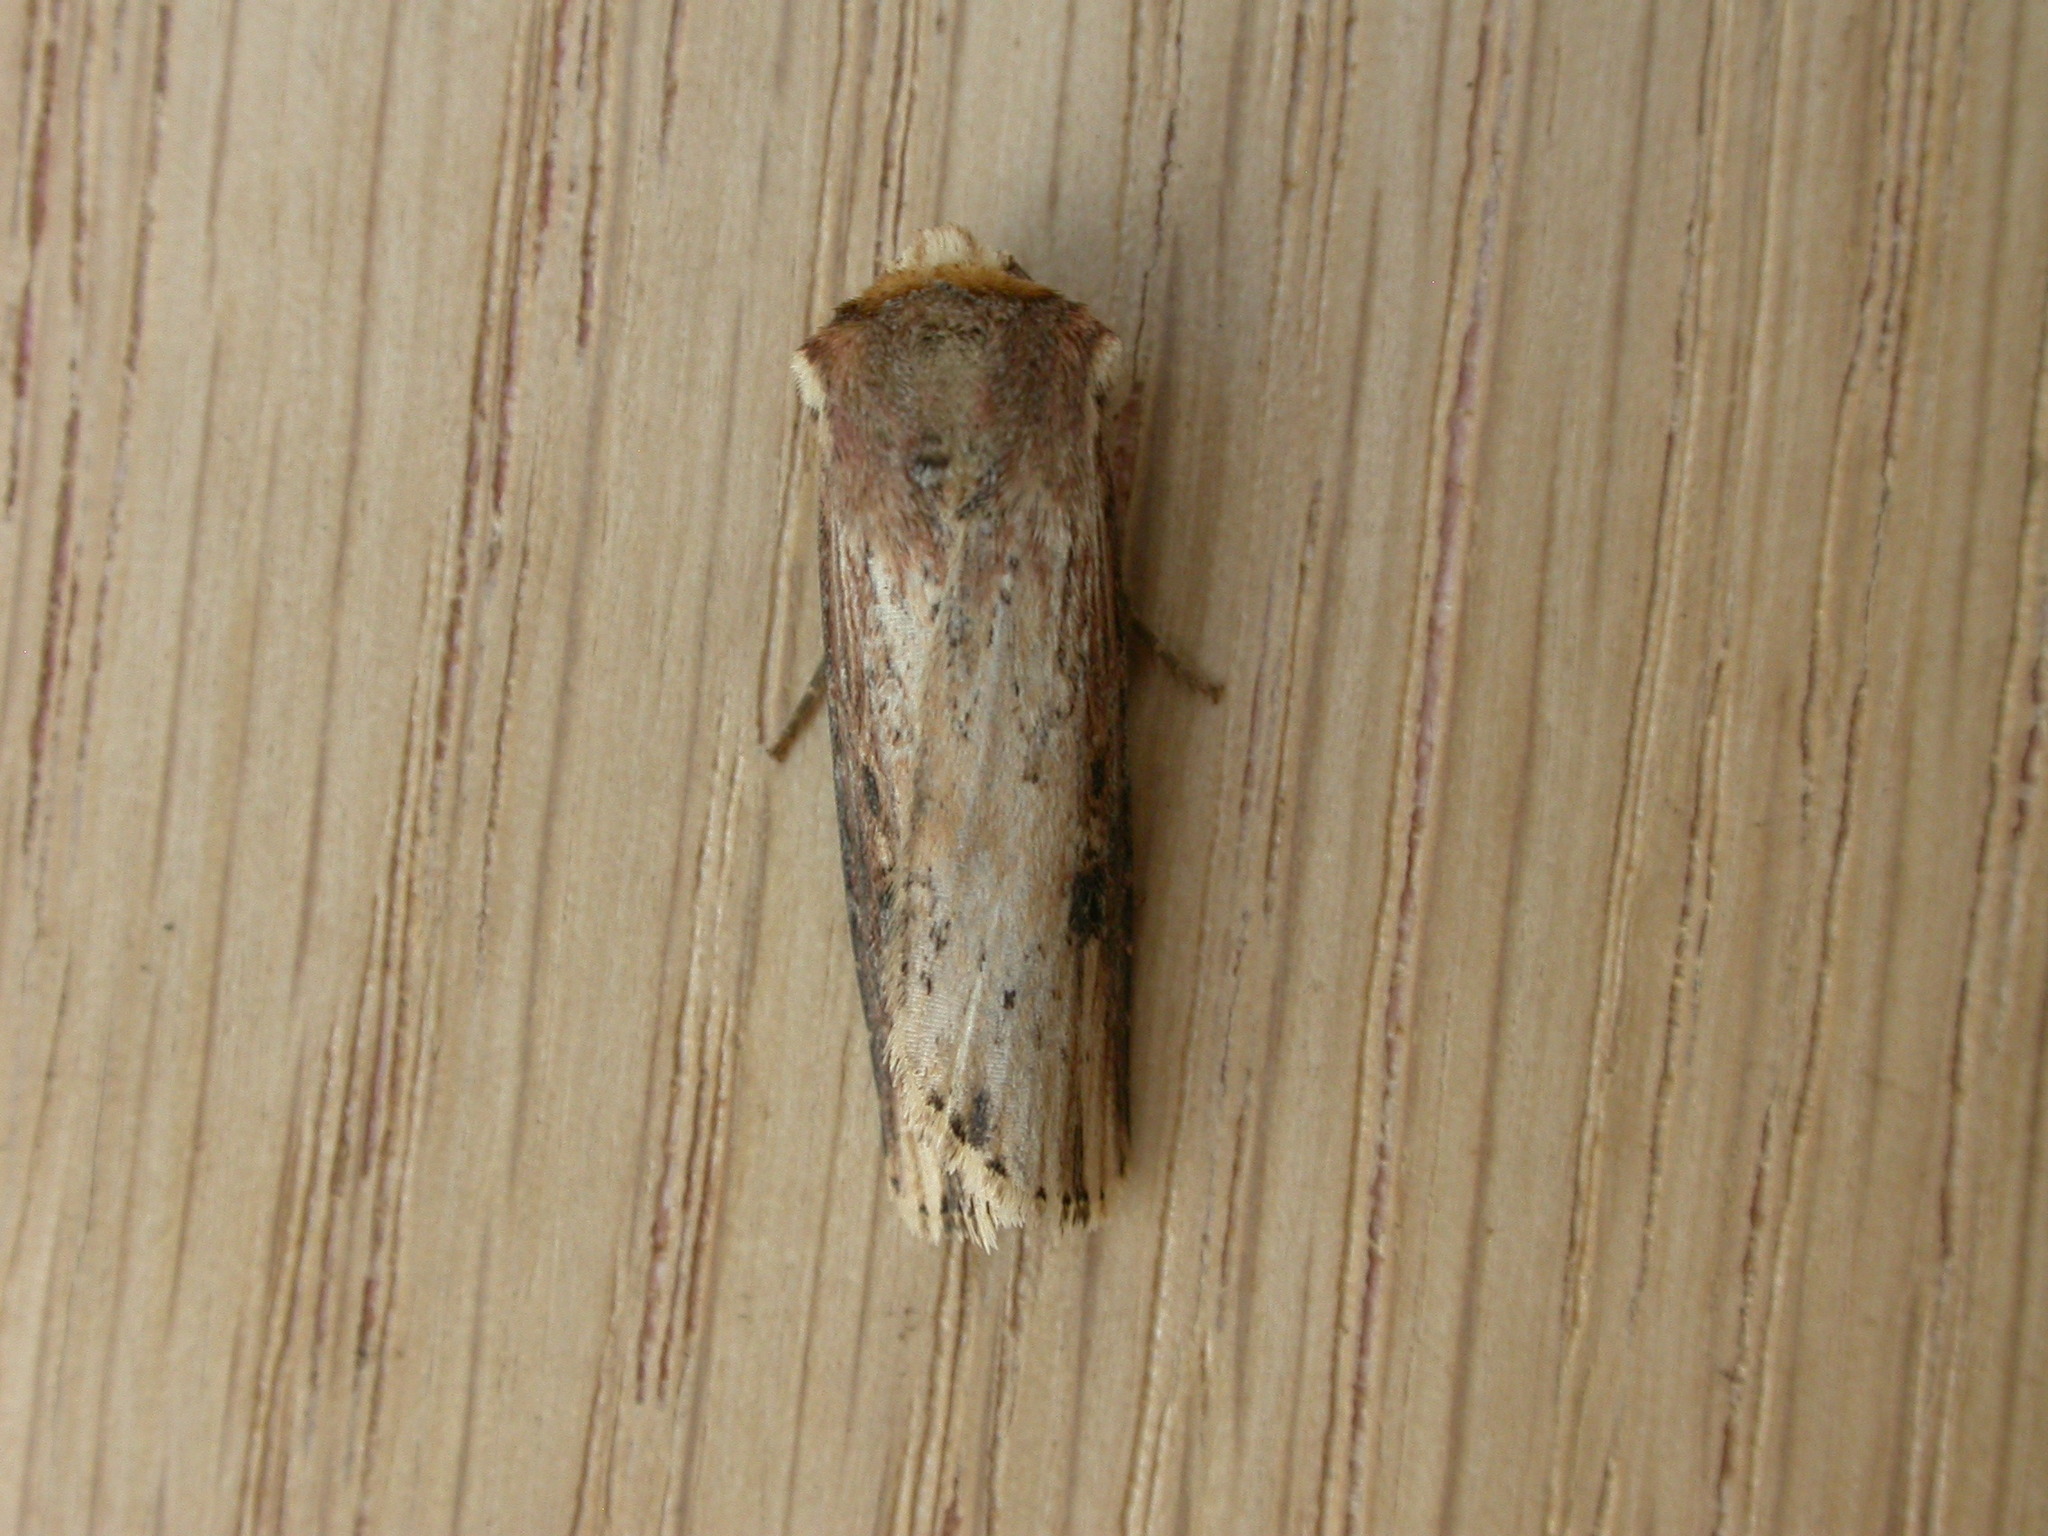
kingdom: Animalia
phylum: Arthropoda
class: Insecta
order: Lepidoptera
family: Noctuidae
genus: Axylia
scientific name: Axylia putris
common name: Flame
